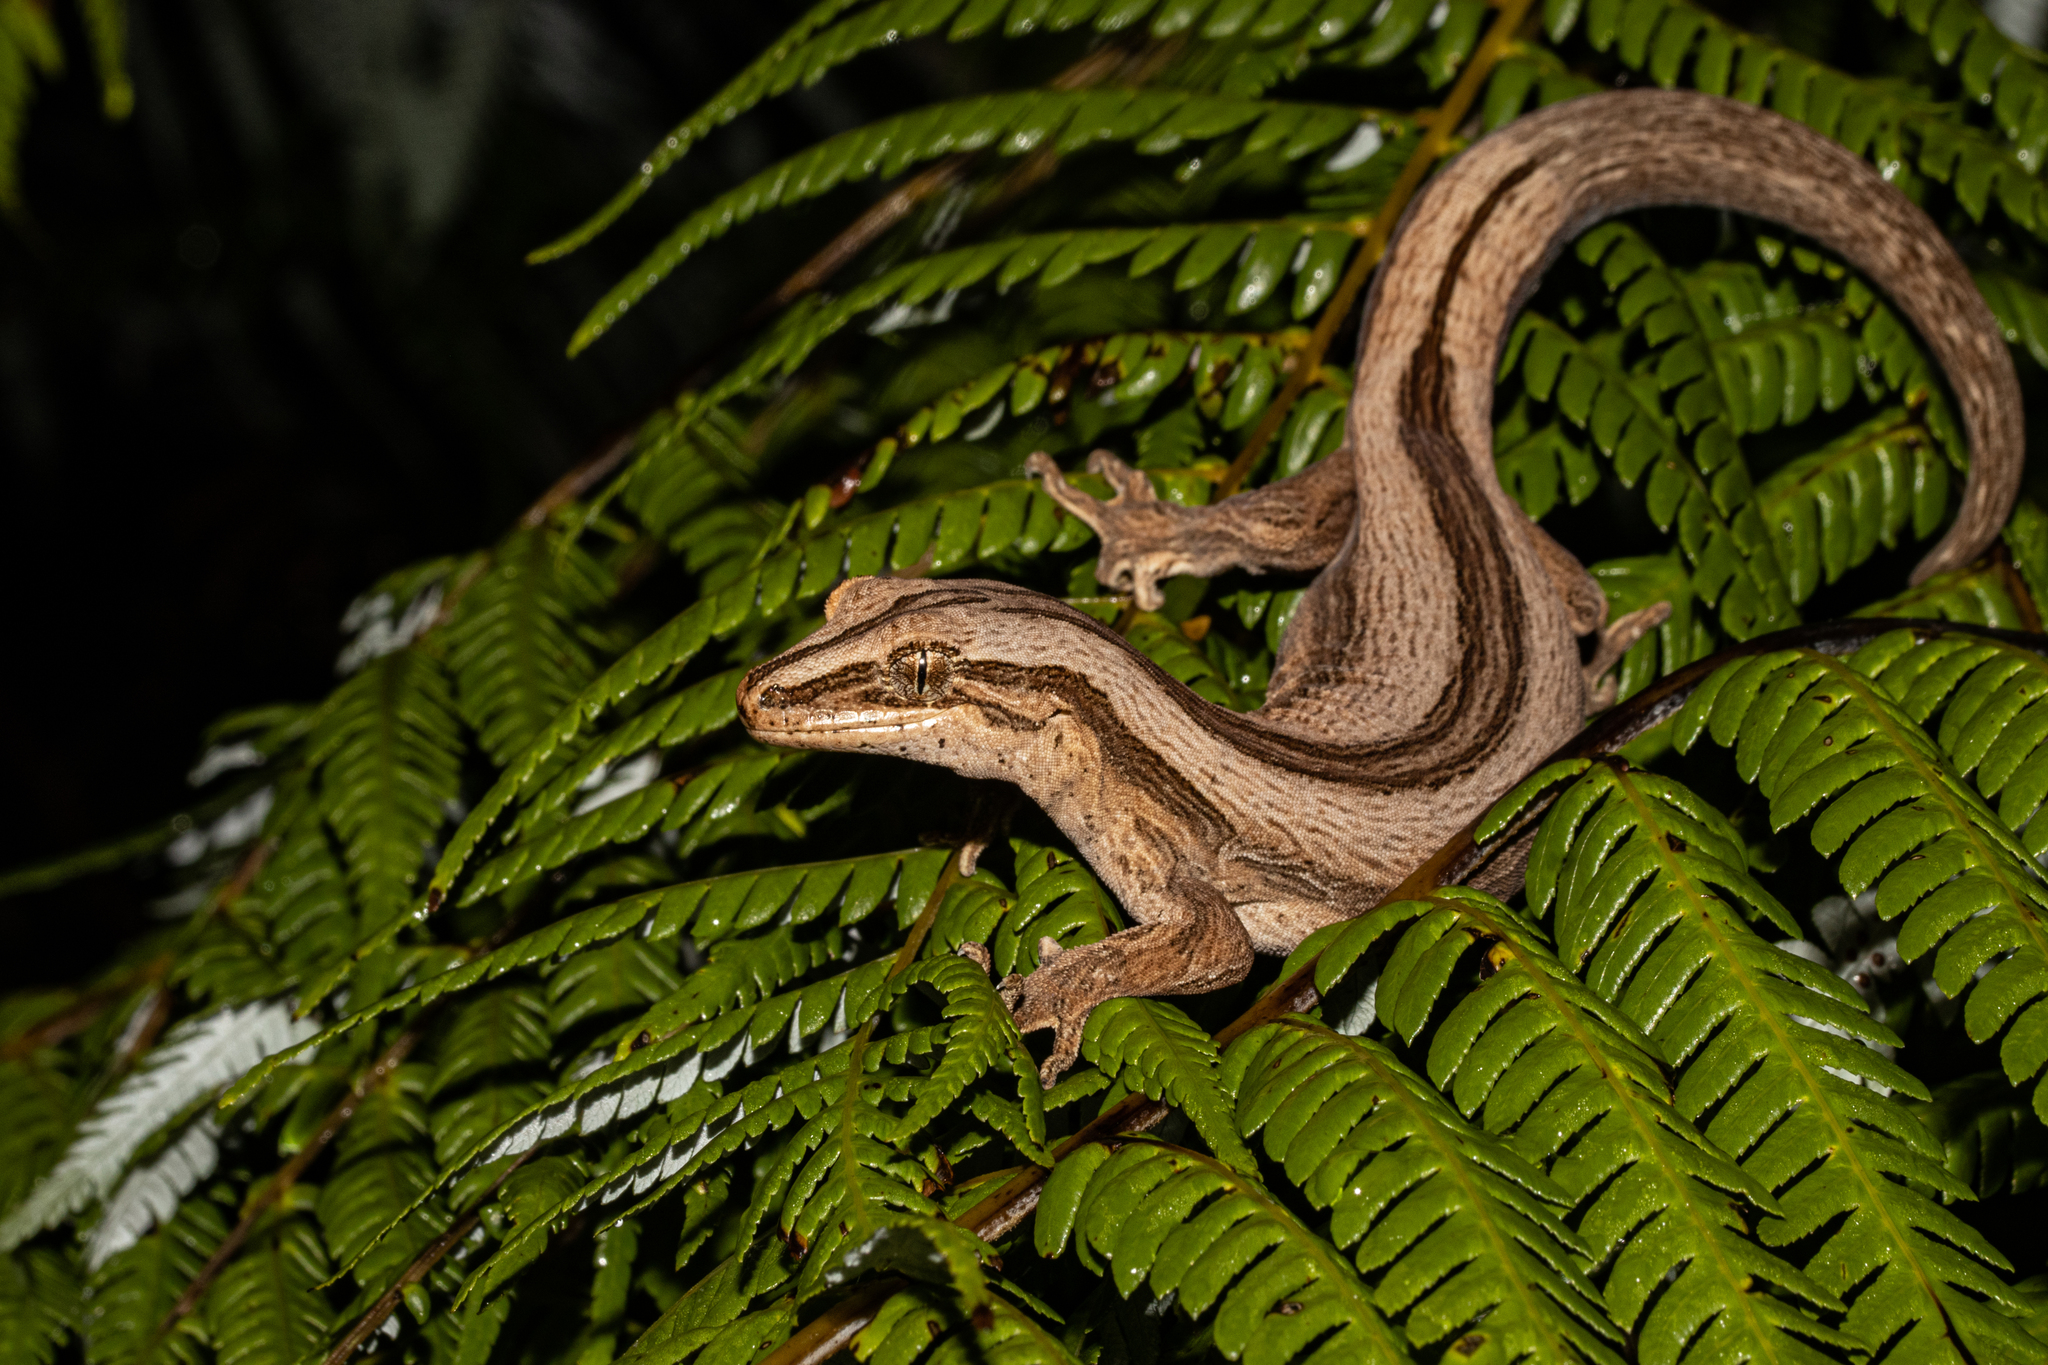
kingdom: Animalia
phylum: Chordata
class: Squamata
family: Diplodactylidae
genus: Toropuku
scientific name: Toropuku inexpectatus
